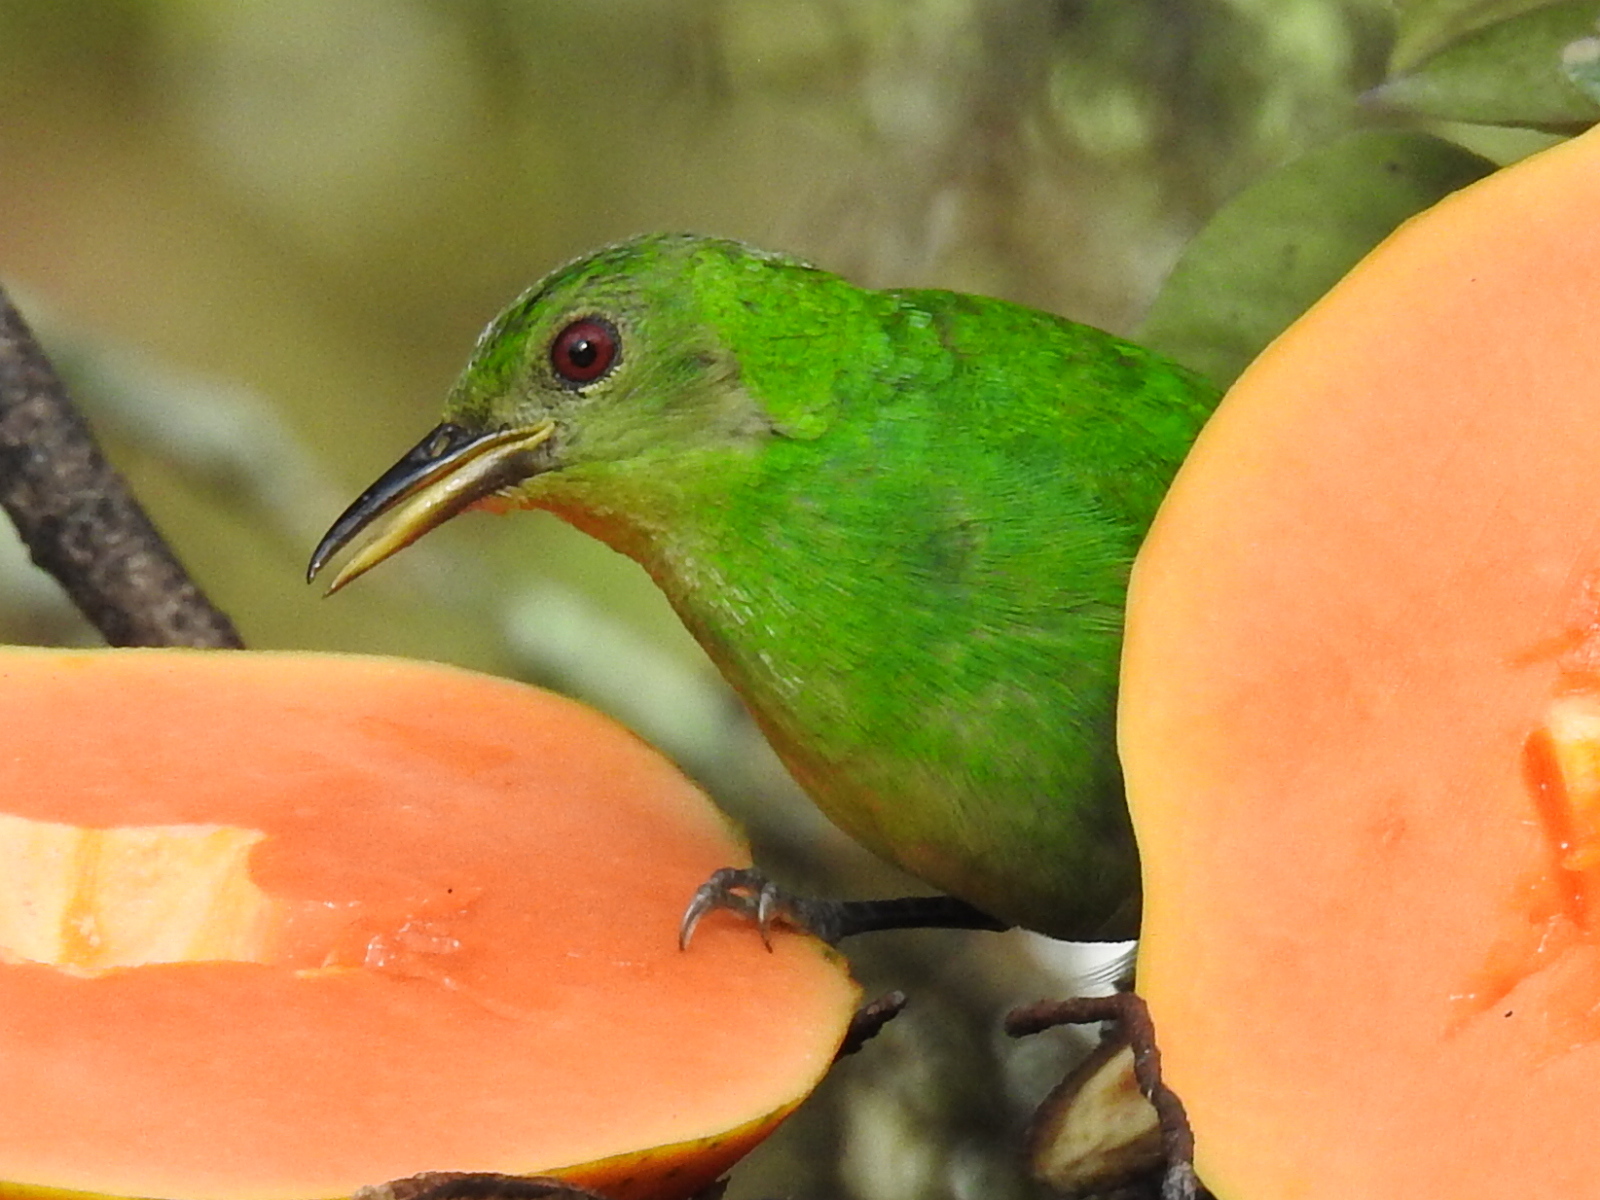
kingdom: Animalia
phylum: Chordata
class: Aves
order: Passeriformes
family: Thraupidae
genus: Chlorophanes
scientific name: Chlorophanes spiza
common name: Green honeycreeper
